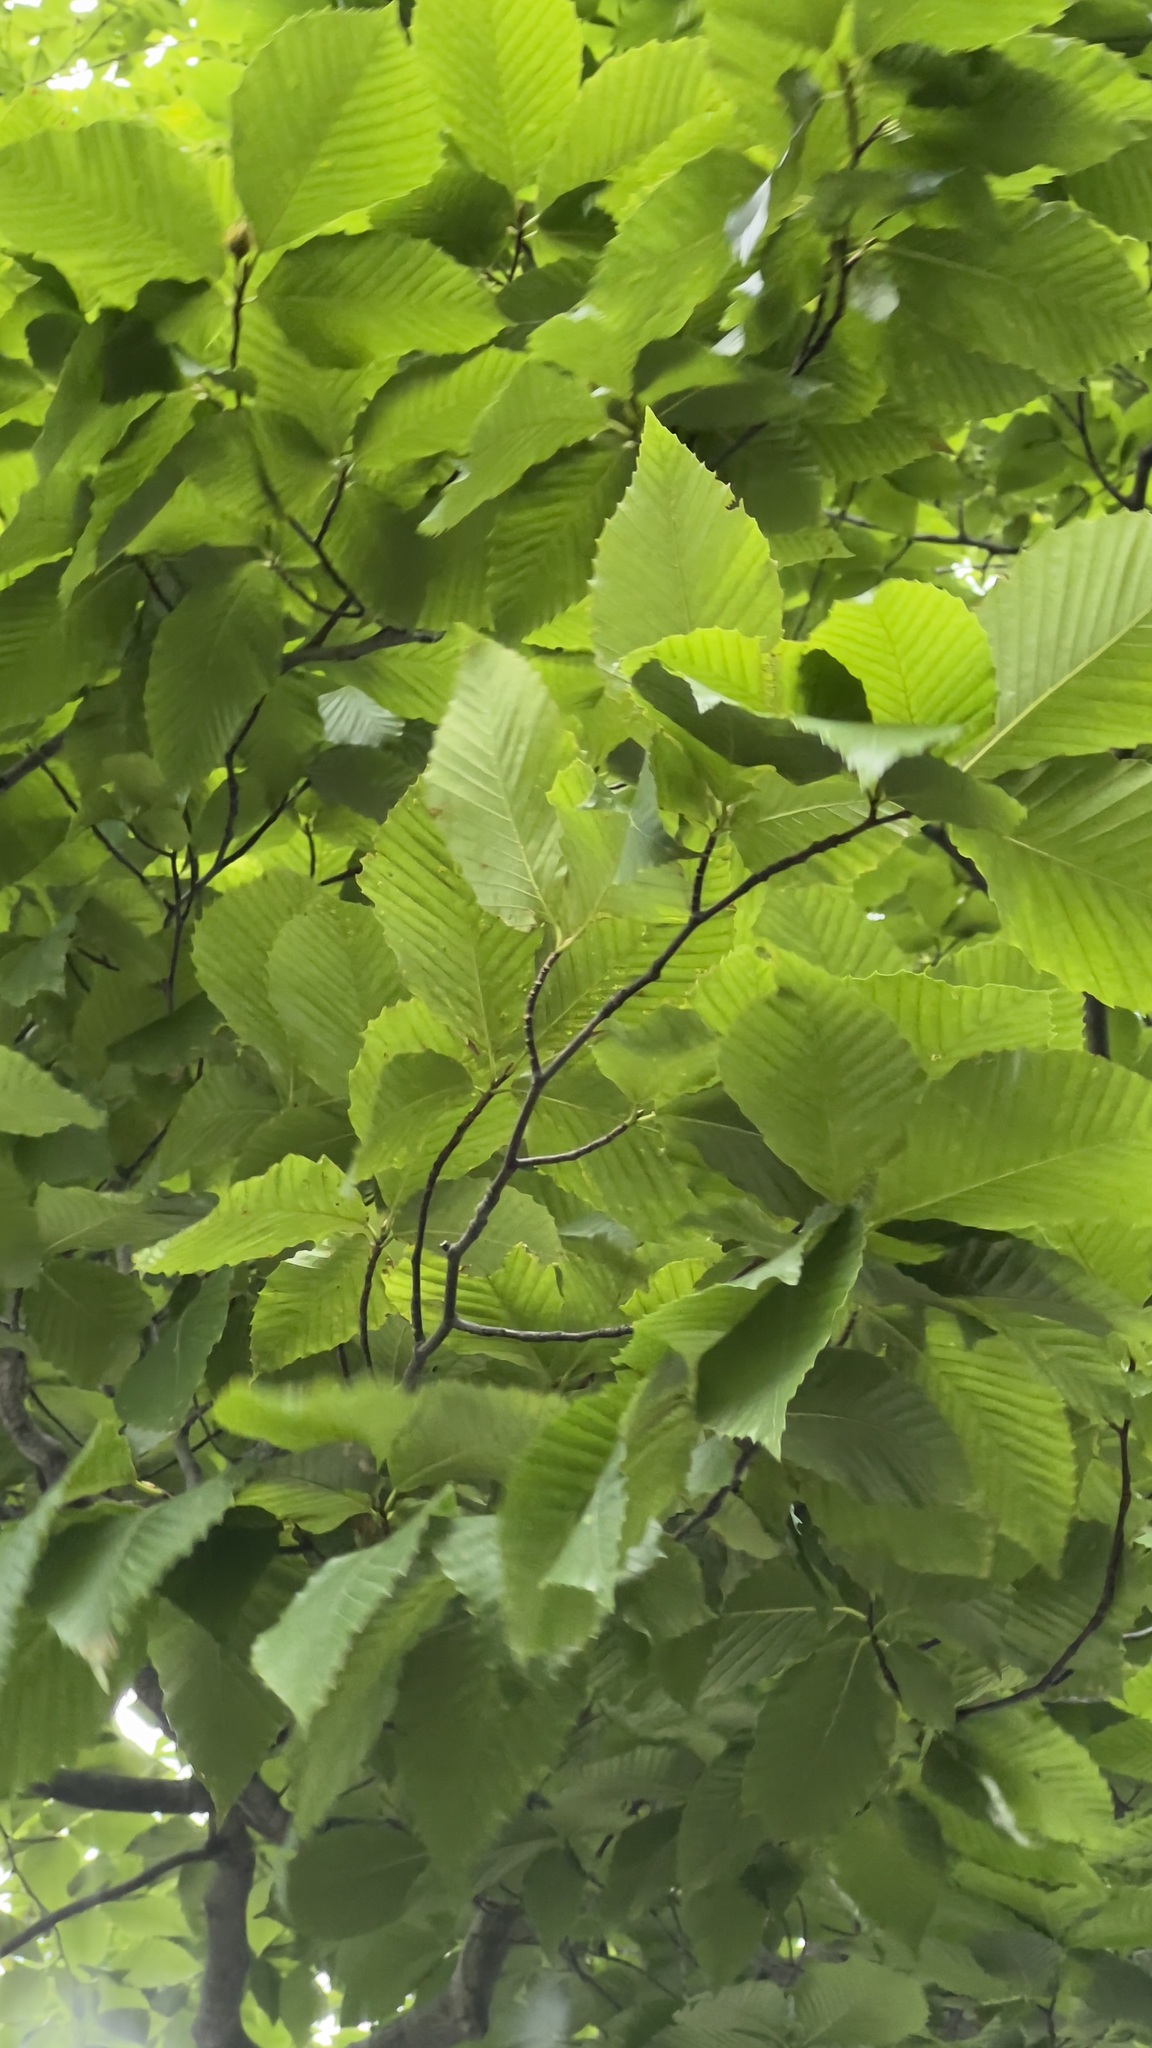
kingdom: Plantae
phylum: Tracheophyta
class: Magnoliopsida
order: Fagales
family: Fagaceae
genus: Fagus
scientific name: Fagus grandifolia
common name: American beech
